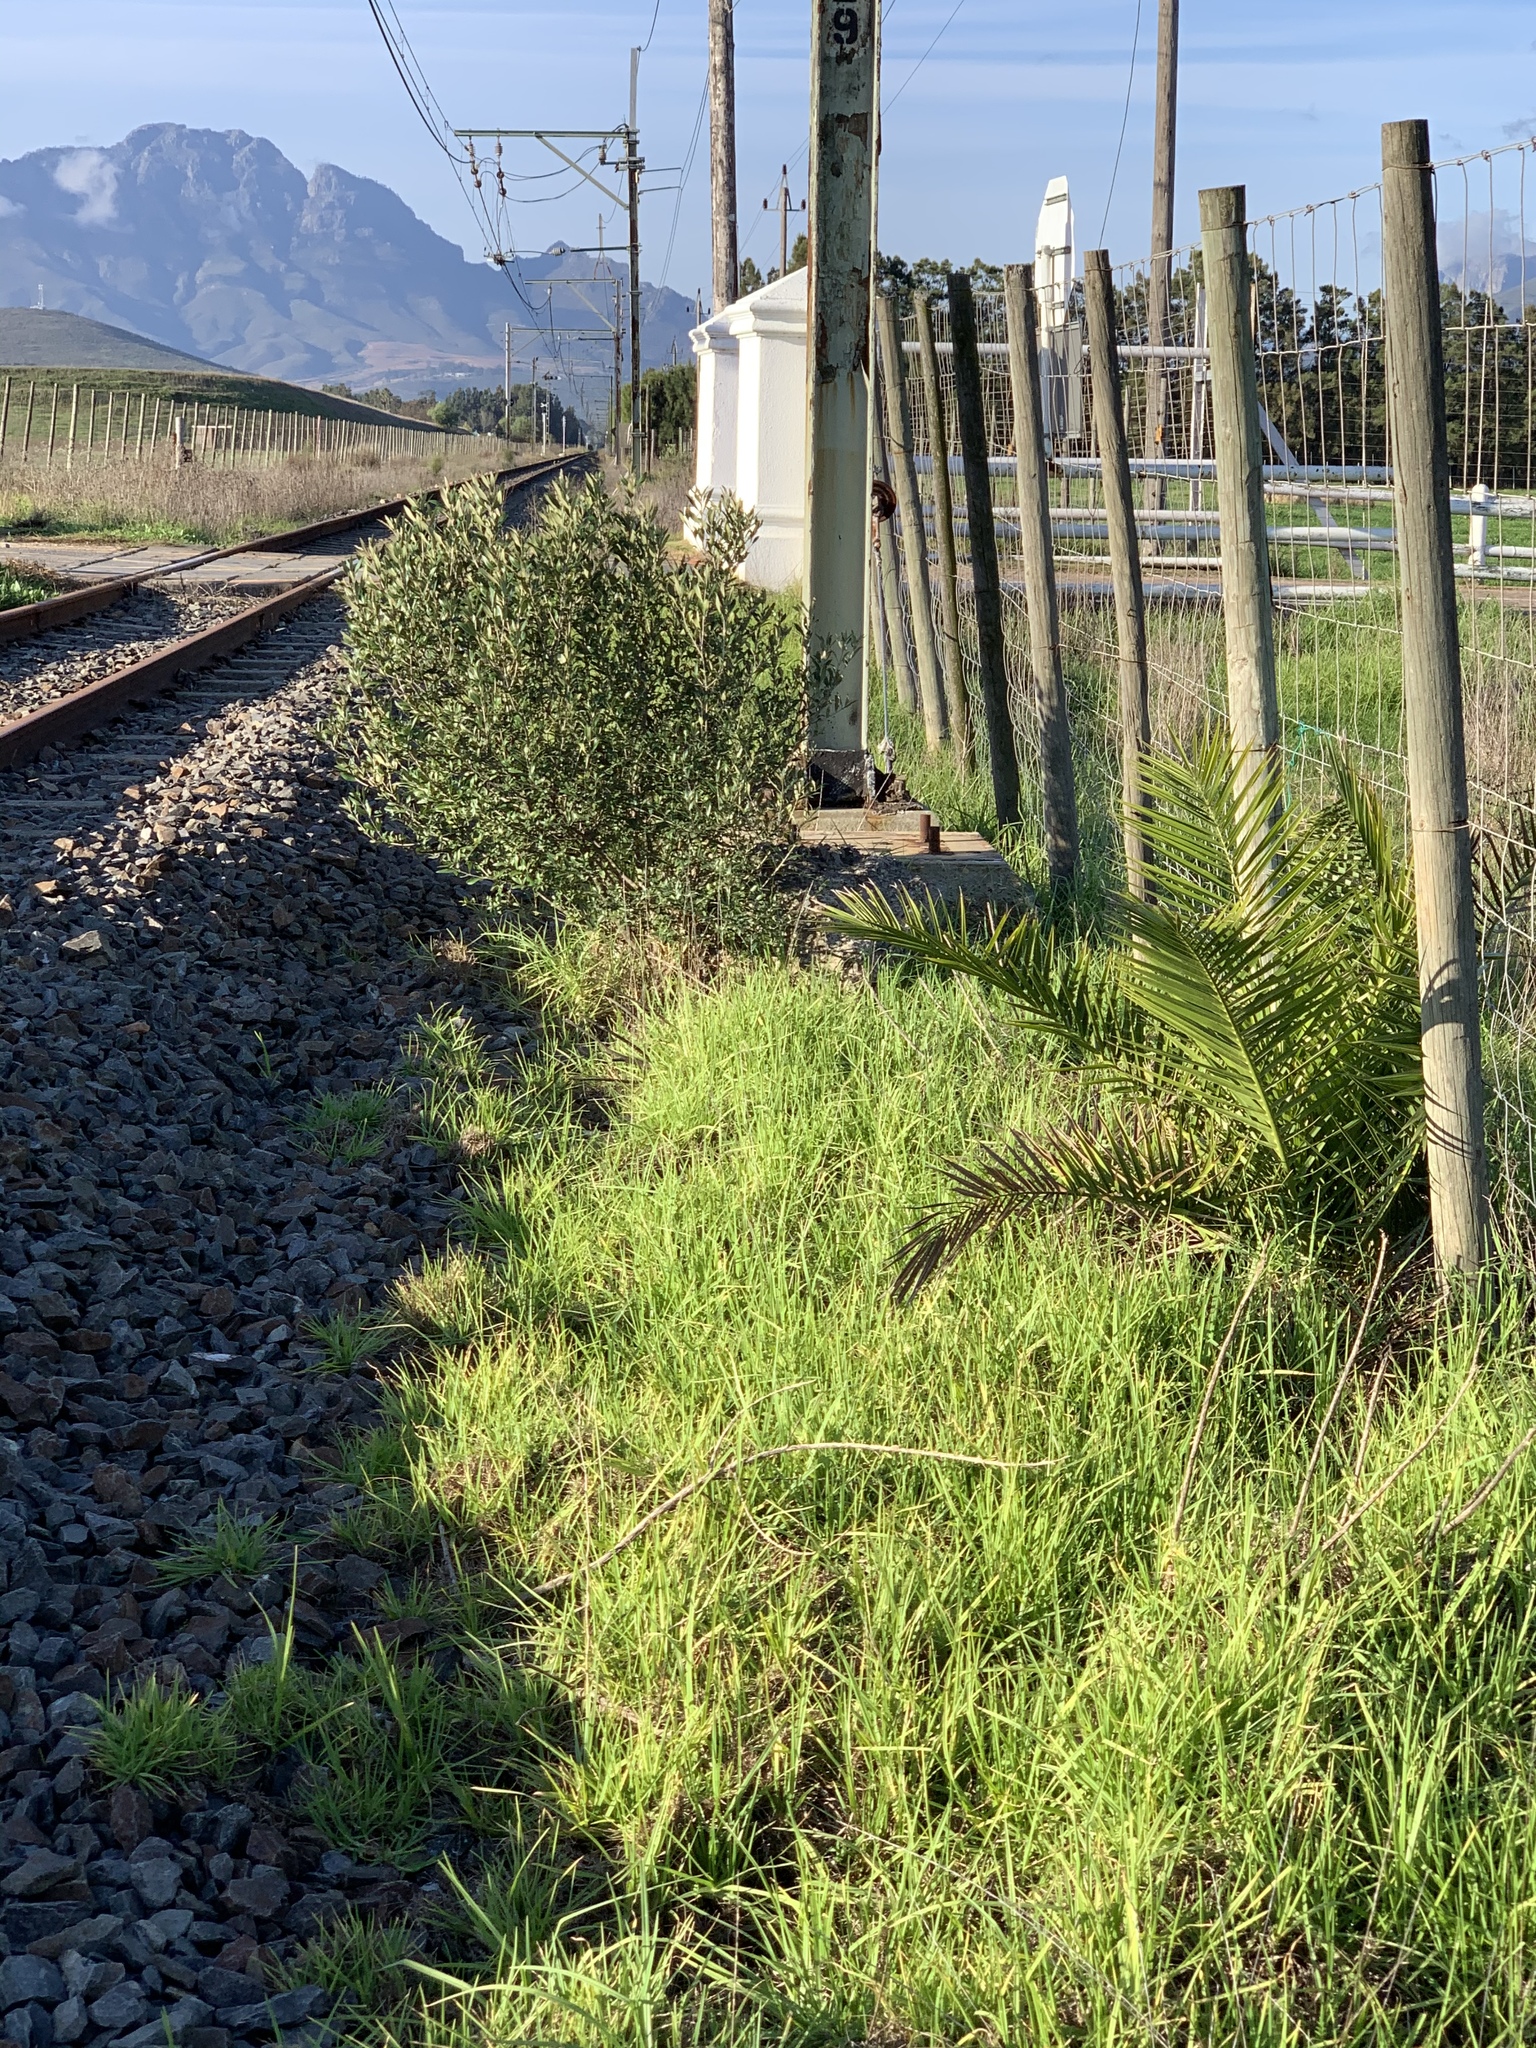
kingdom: Plantae
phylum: Tracheophyta
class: Liliopsida
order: Arecales
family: Arecaceae
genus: Phoenix
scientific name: Phoenix canariensis
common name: Canary island date palm
